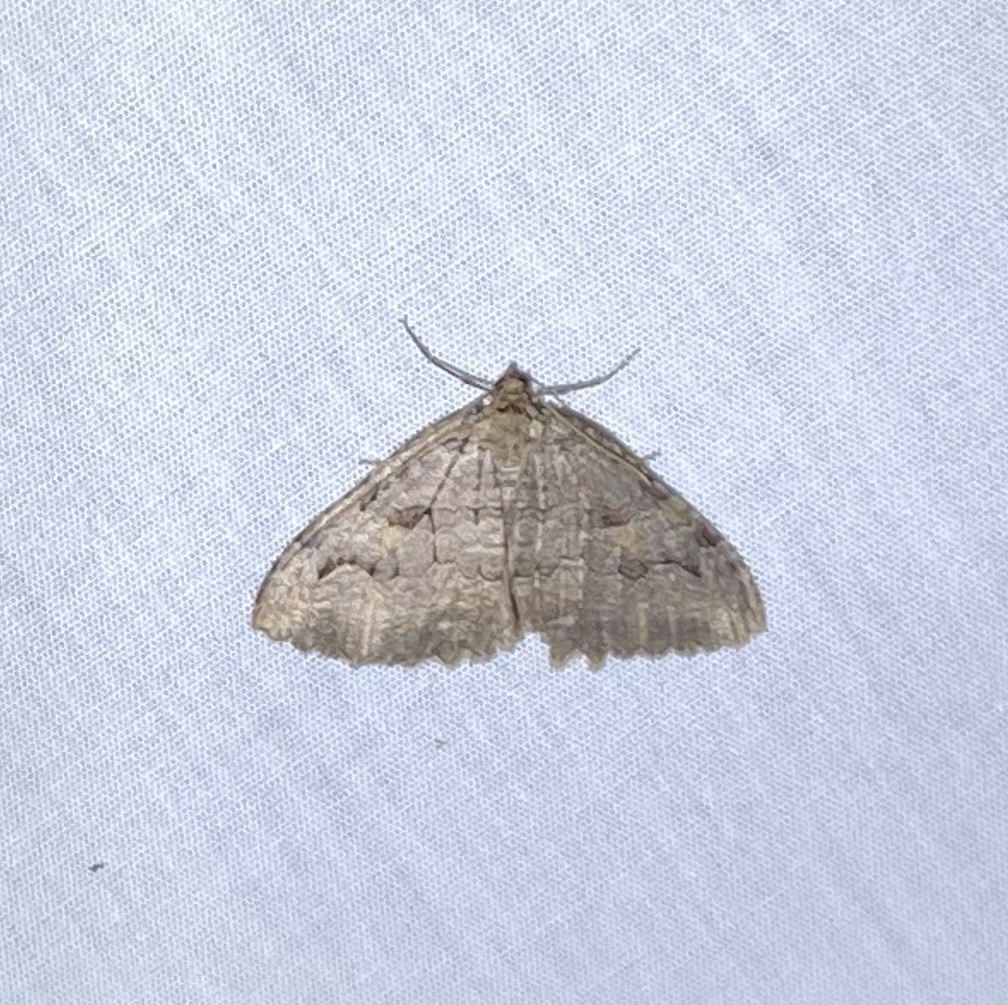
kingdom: Animalia
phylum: Arthropoda
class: Insecta
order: Lepidoptera
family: Geometridae
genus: Triphosa
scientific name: Triphosa haesitata
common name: Tissue moth
